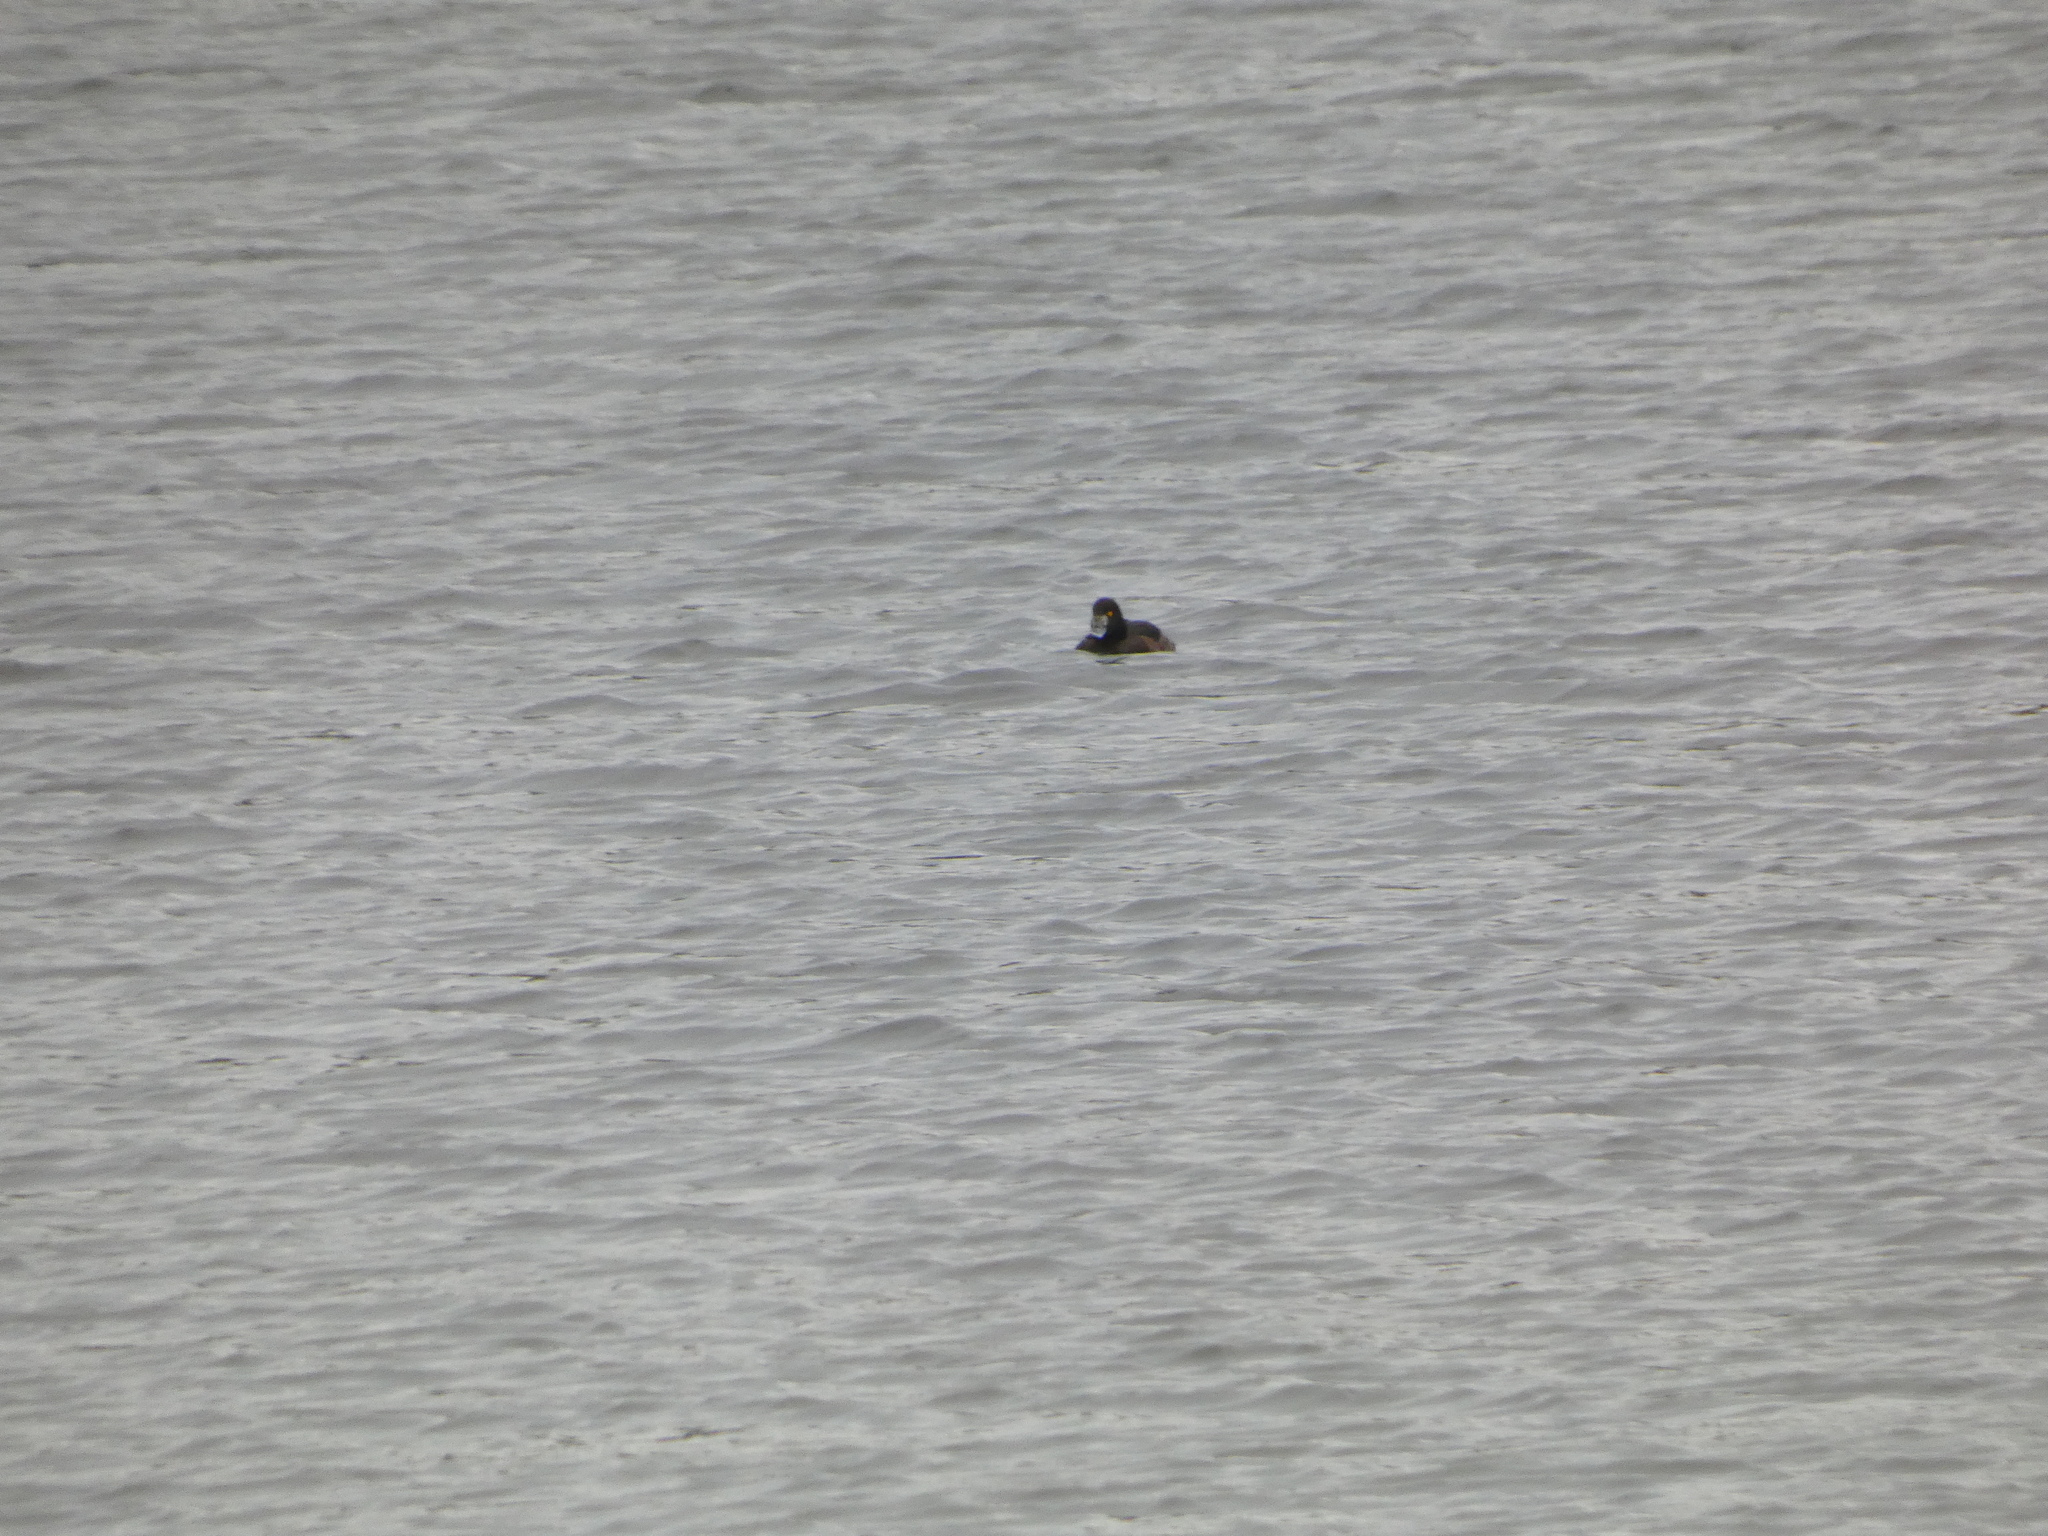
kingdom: Animalia
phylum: Chordata
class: Aves
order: Anseriformes
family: Anatidae
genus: Aythya
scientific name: Aythya fuligula
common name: Tufted duck
